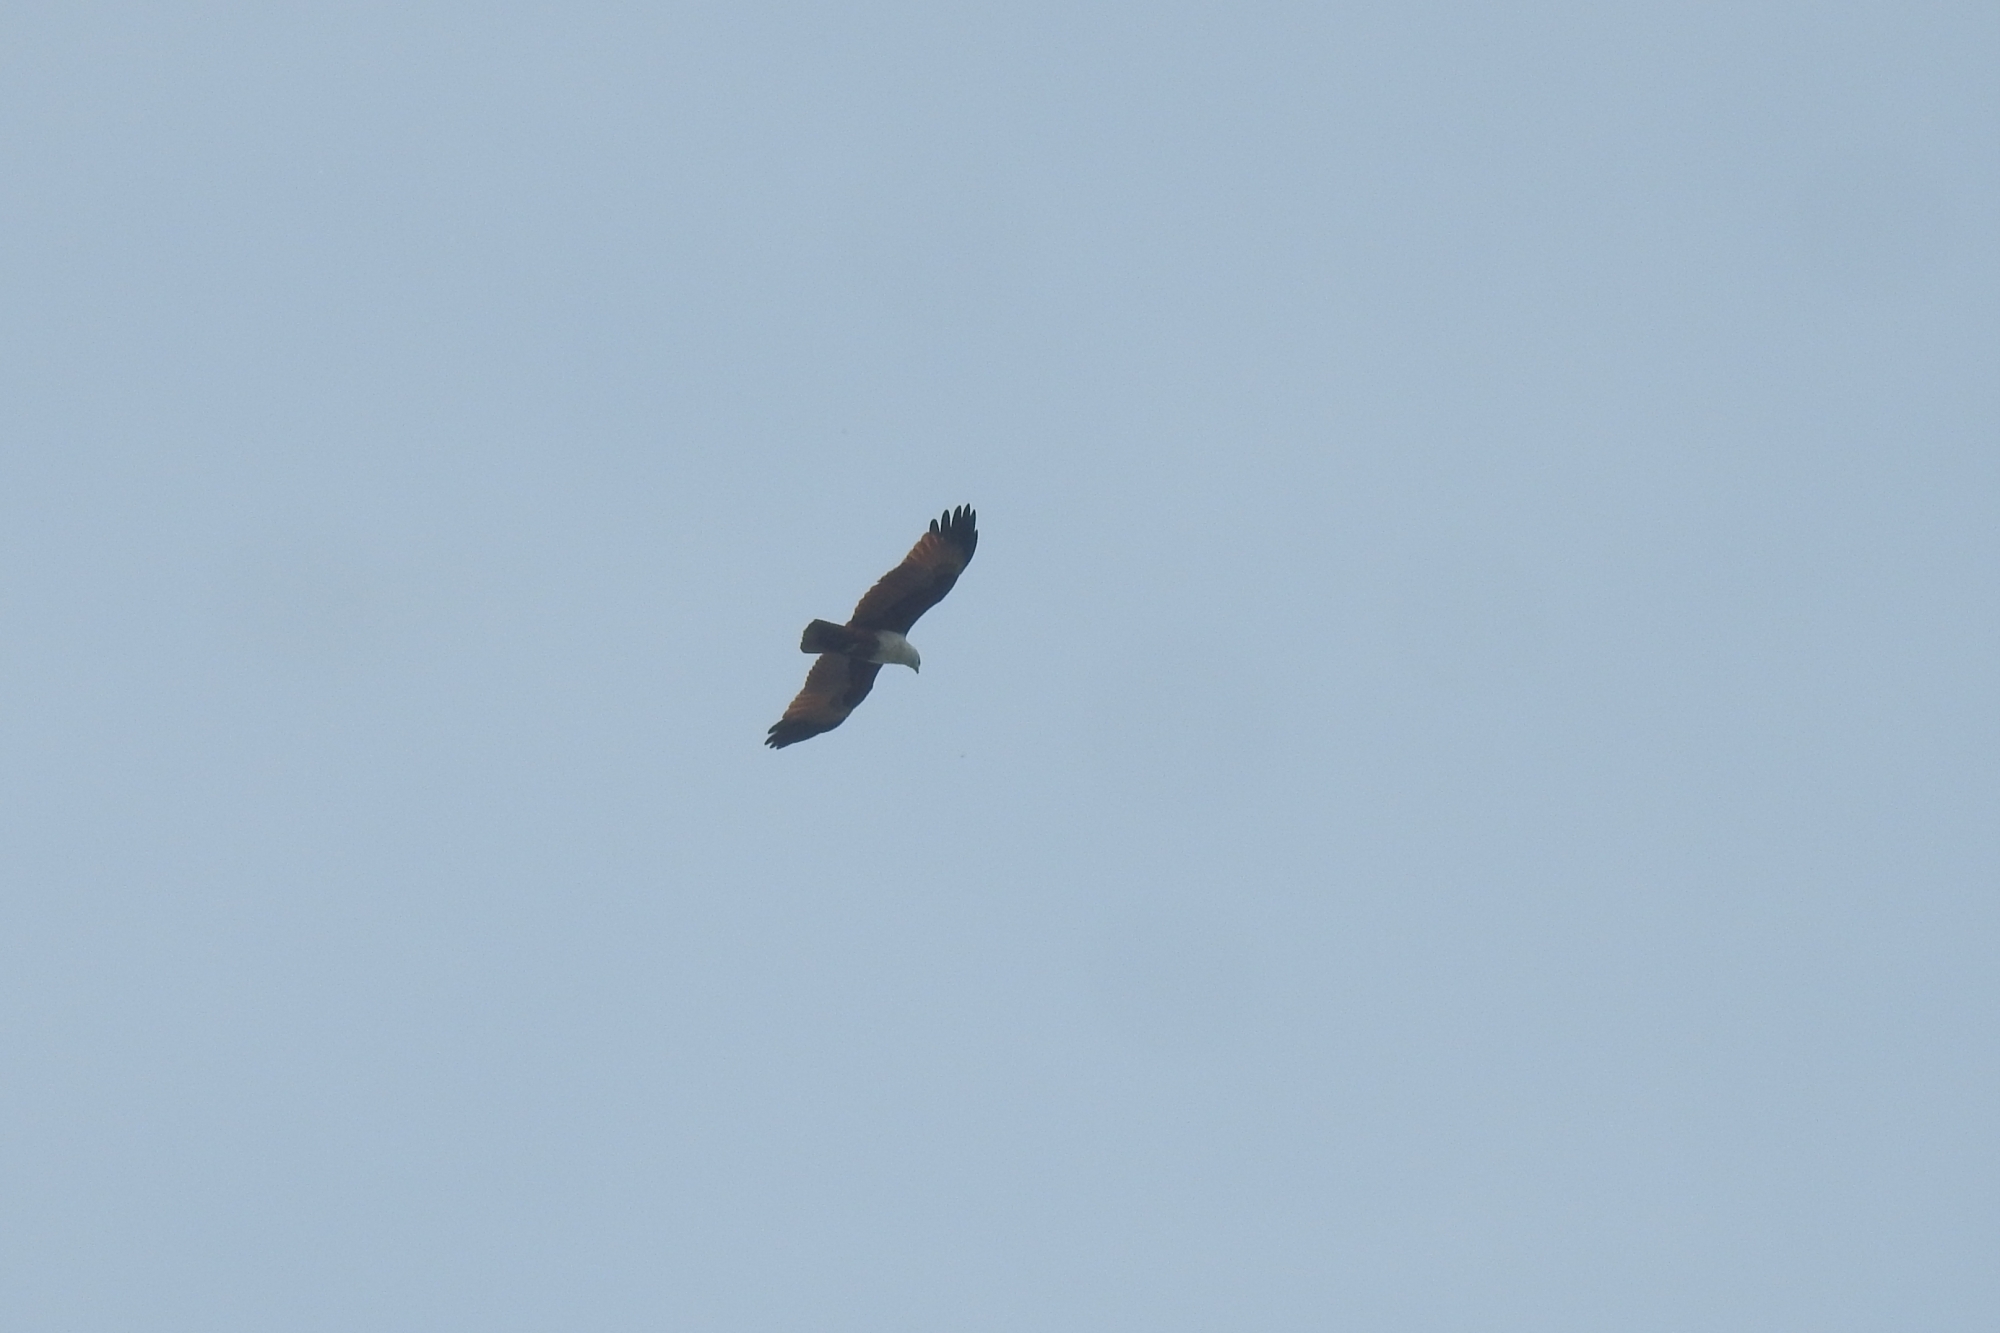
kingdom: Animalia
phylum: Chordata
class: Aves
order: Accipitriformes
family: Accipitridae
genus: Haliastur
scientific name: Haliastur indus
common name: Brahminy kite
